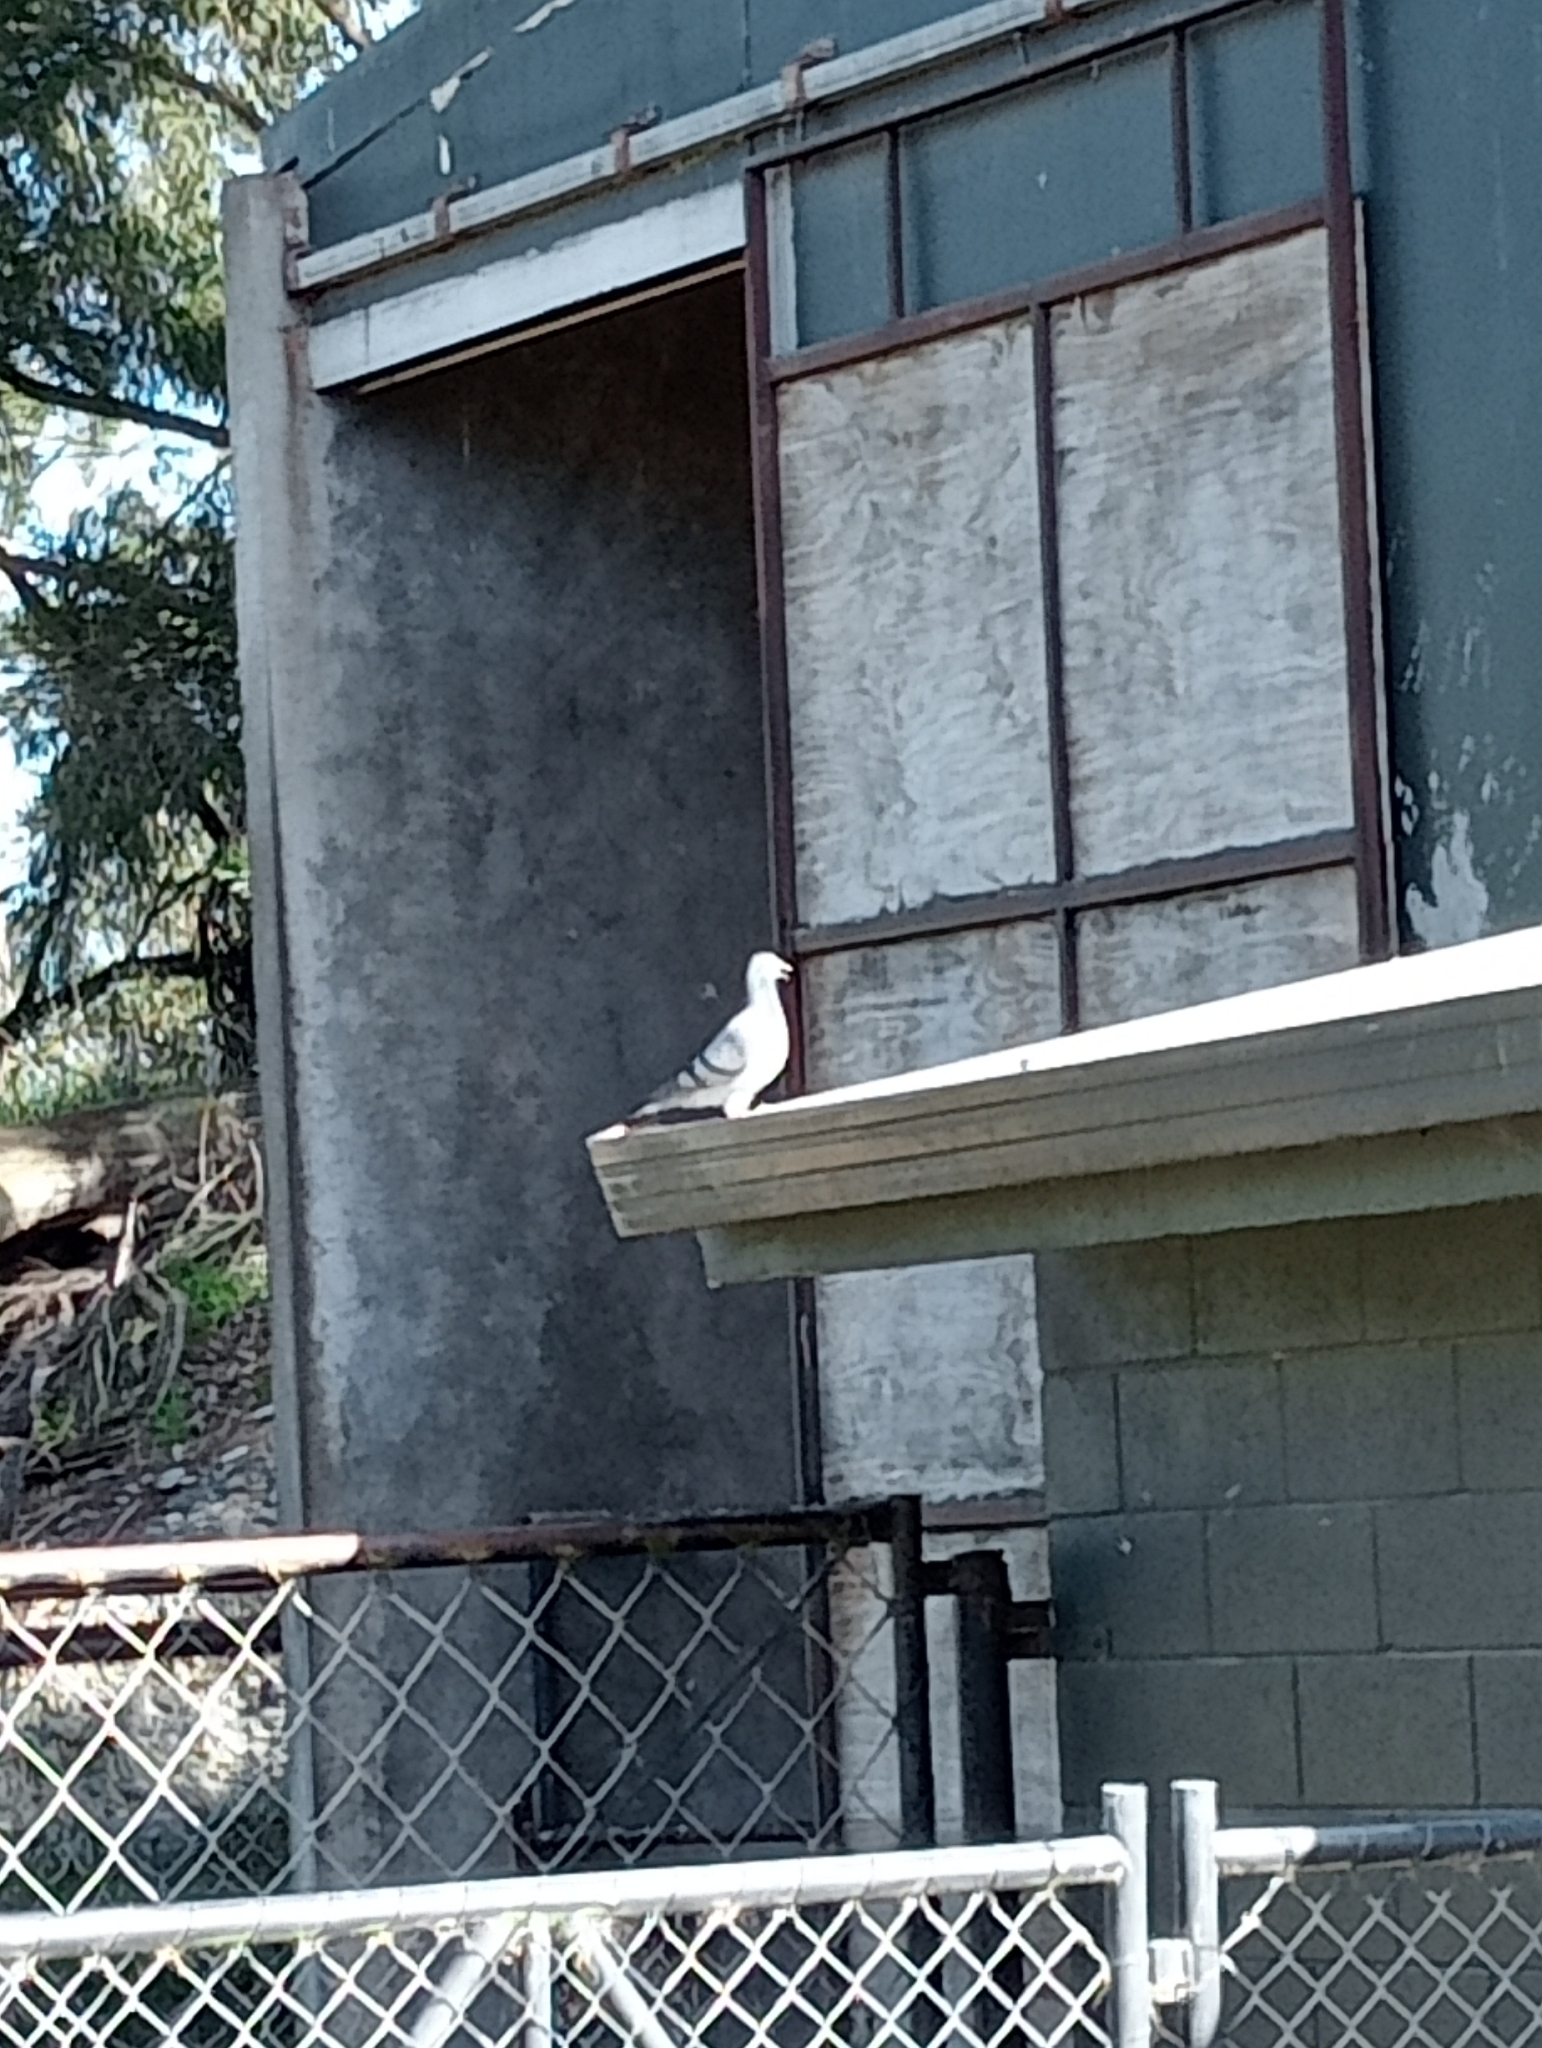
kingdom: Animalia
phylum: Chordata
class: Aves
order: Columbiformes
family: Columbidae
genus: Columba
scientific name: Columba livia
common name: Rock pigeon
